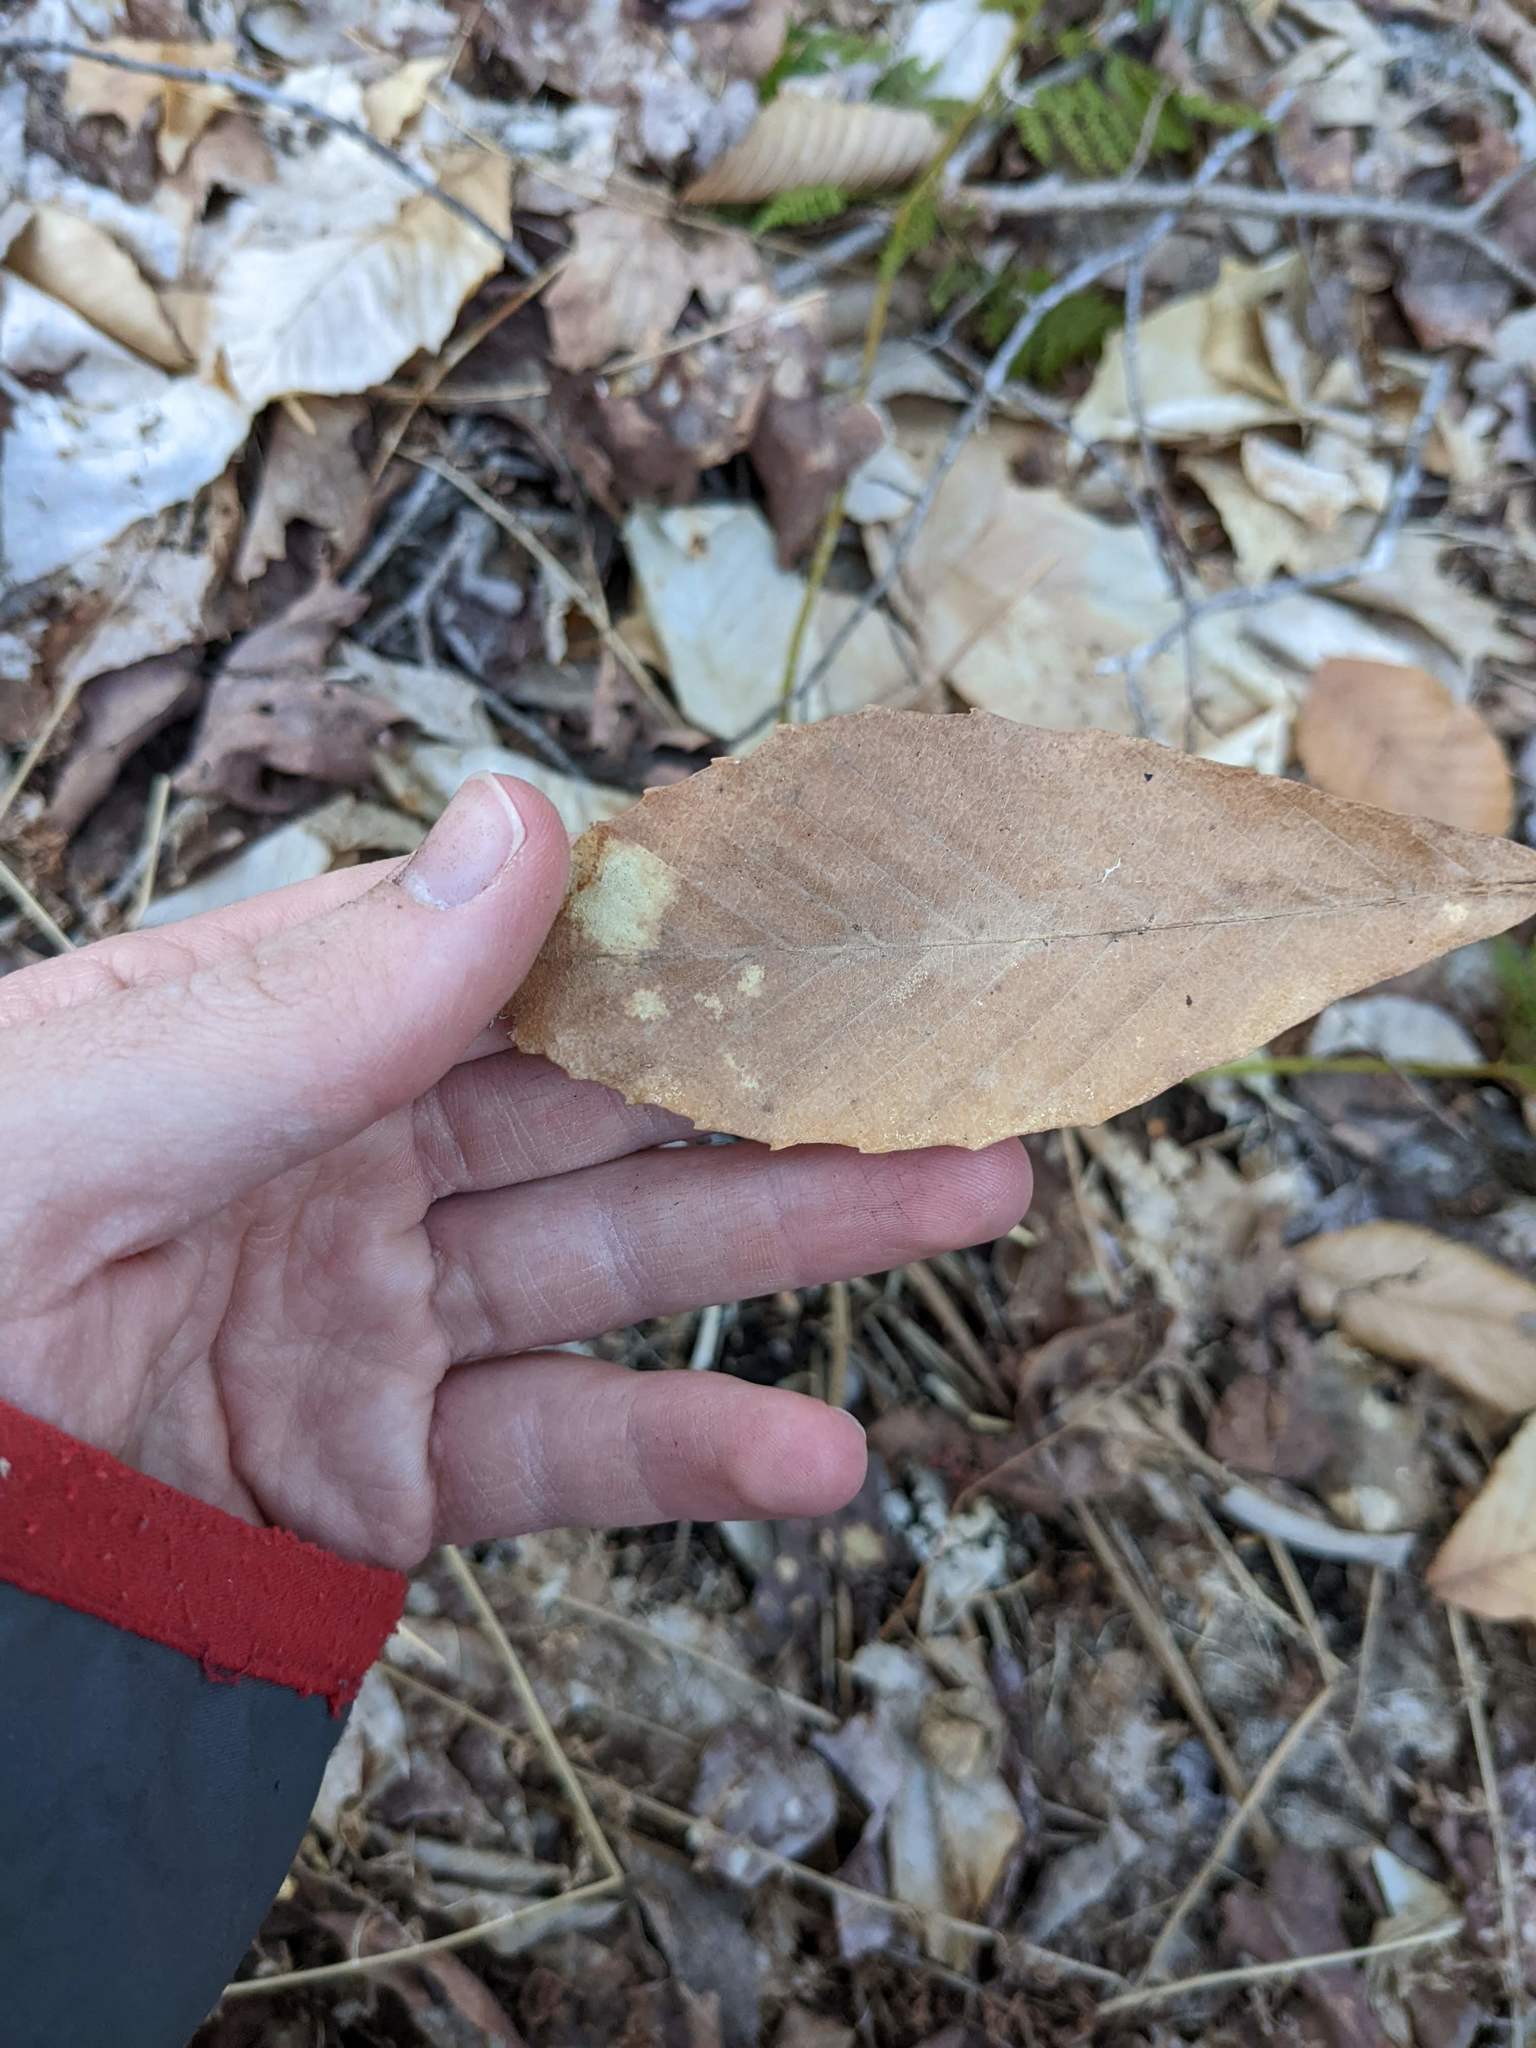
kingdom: Plantae
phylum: Tracheophyta
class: Magnoliopsida
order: Fagales
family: Fagaceae
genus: Fagus
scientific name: Fagus grandifolia
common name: American beech
